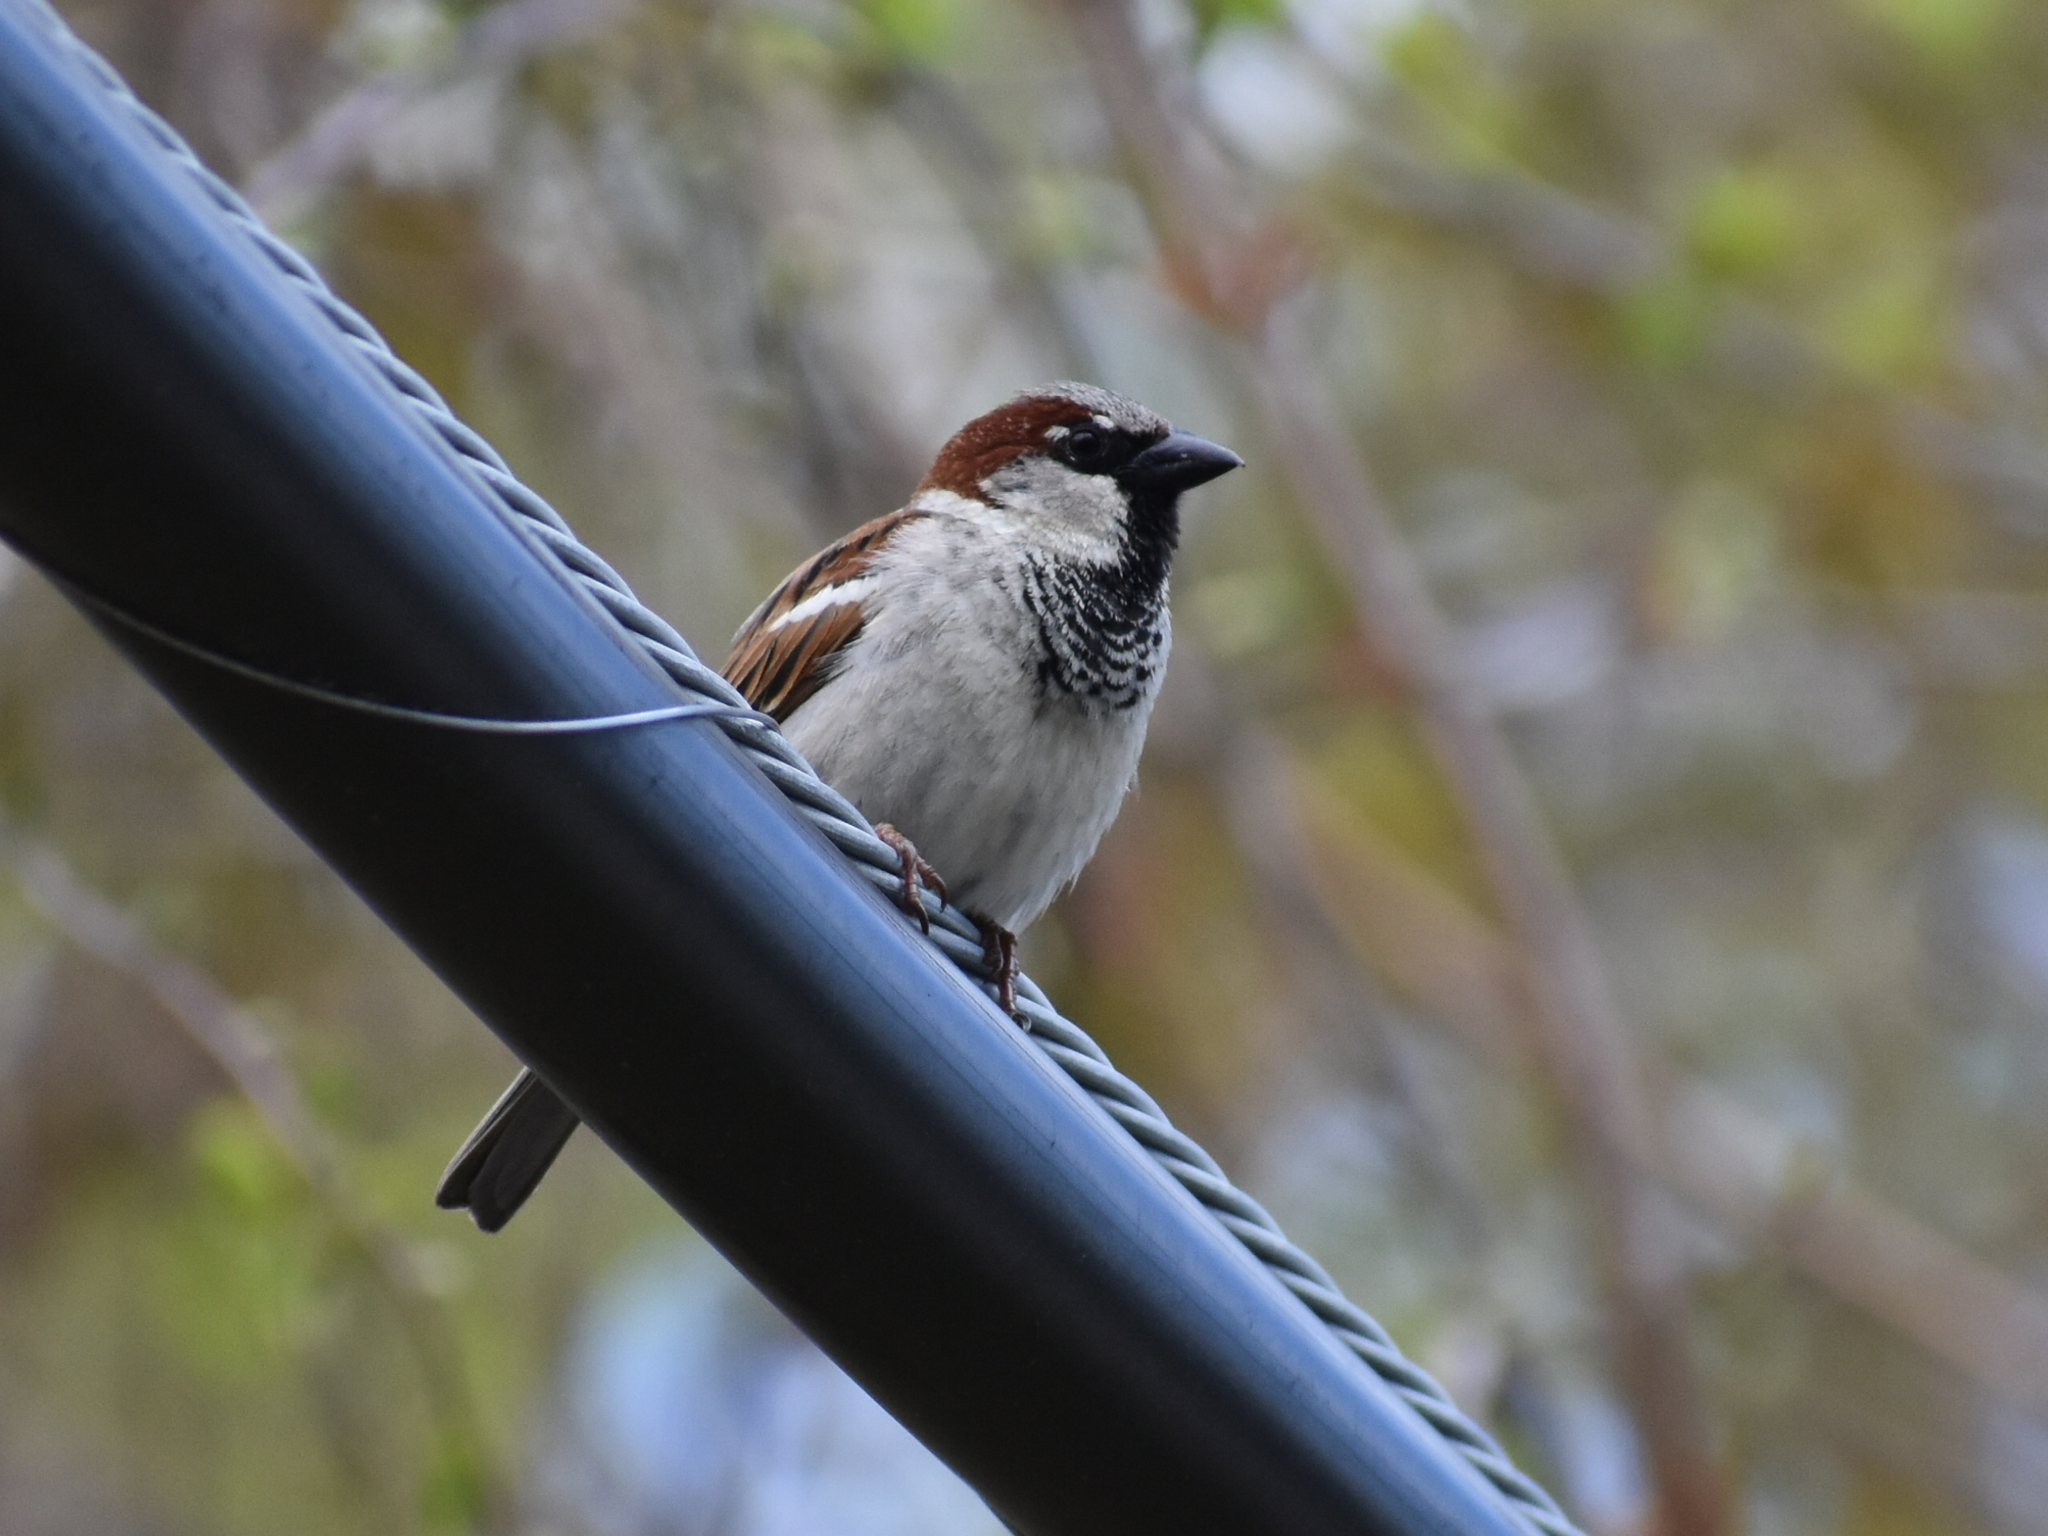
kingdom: Animalia
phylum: Chordata
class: Aves
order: Passeriformes
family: Passeridae
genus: Passer
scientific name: Passer domesticus
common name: House sparrow
